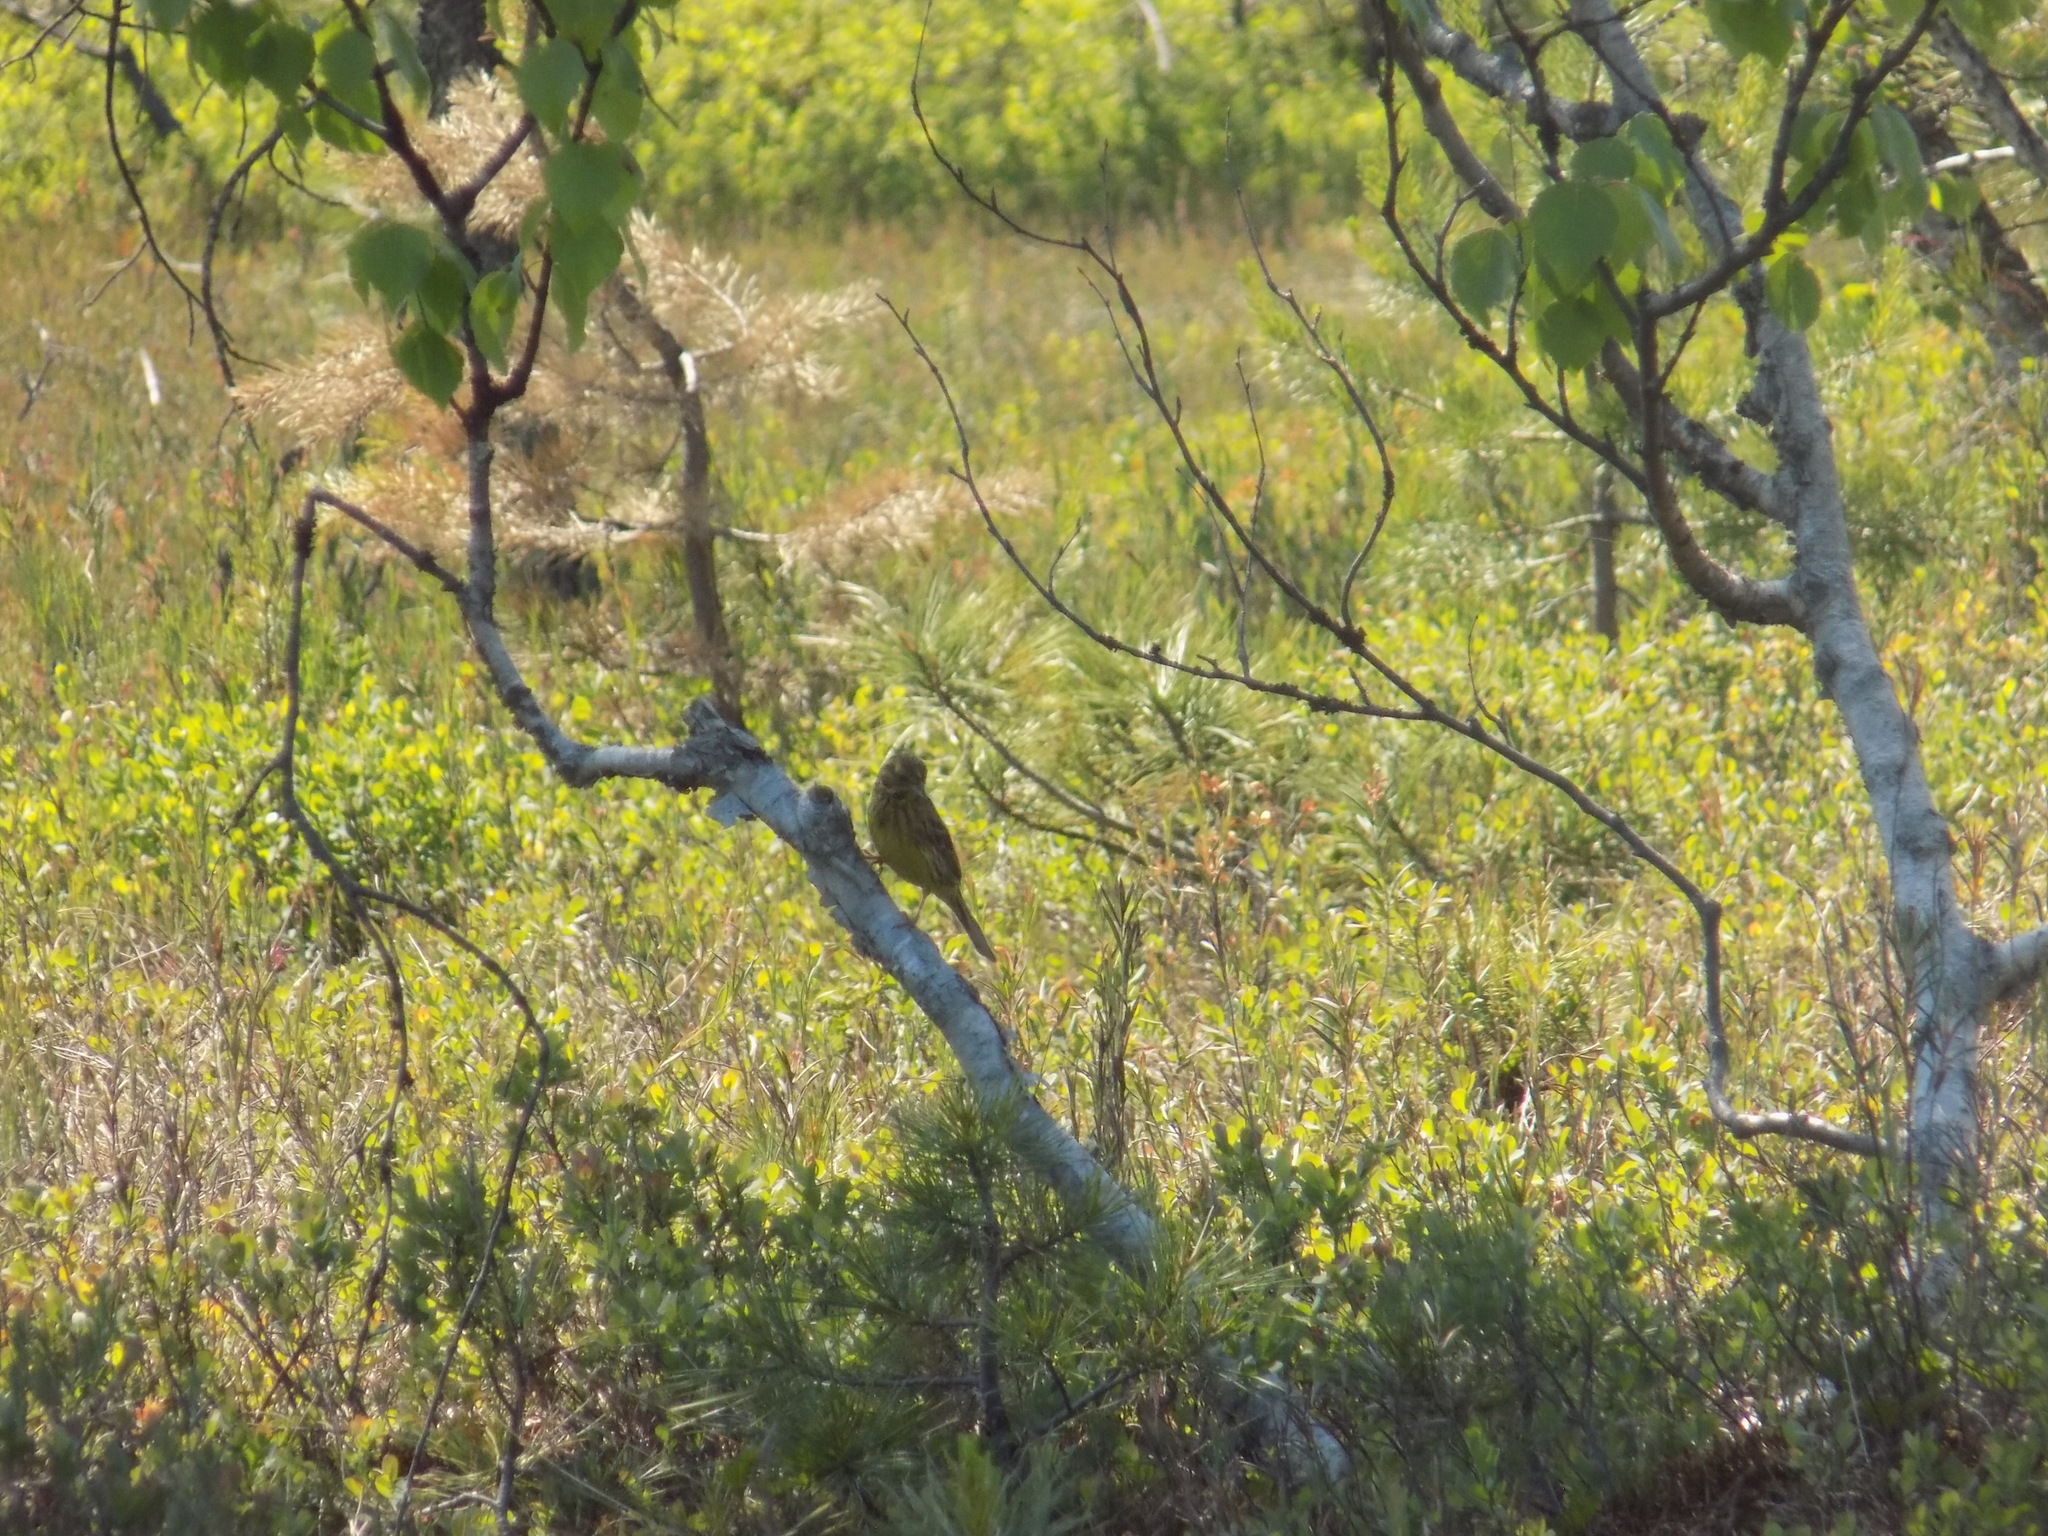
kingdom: Animalia
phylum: Chordata
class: Aves
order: Passeriformes
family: Emberizidae
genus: Emberiza
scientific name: Emberiza
